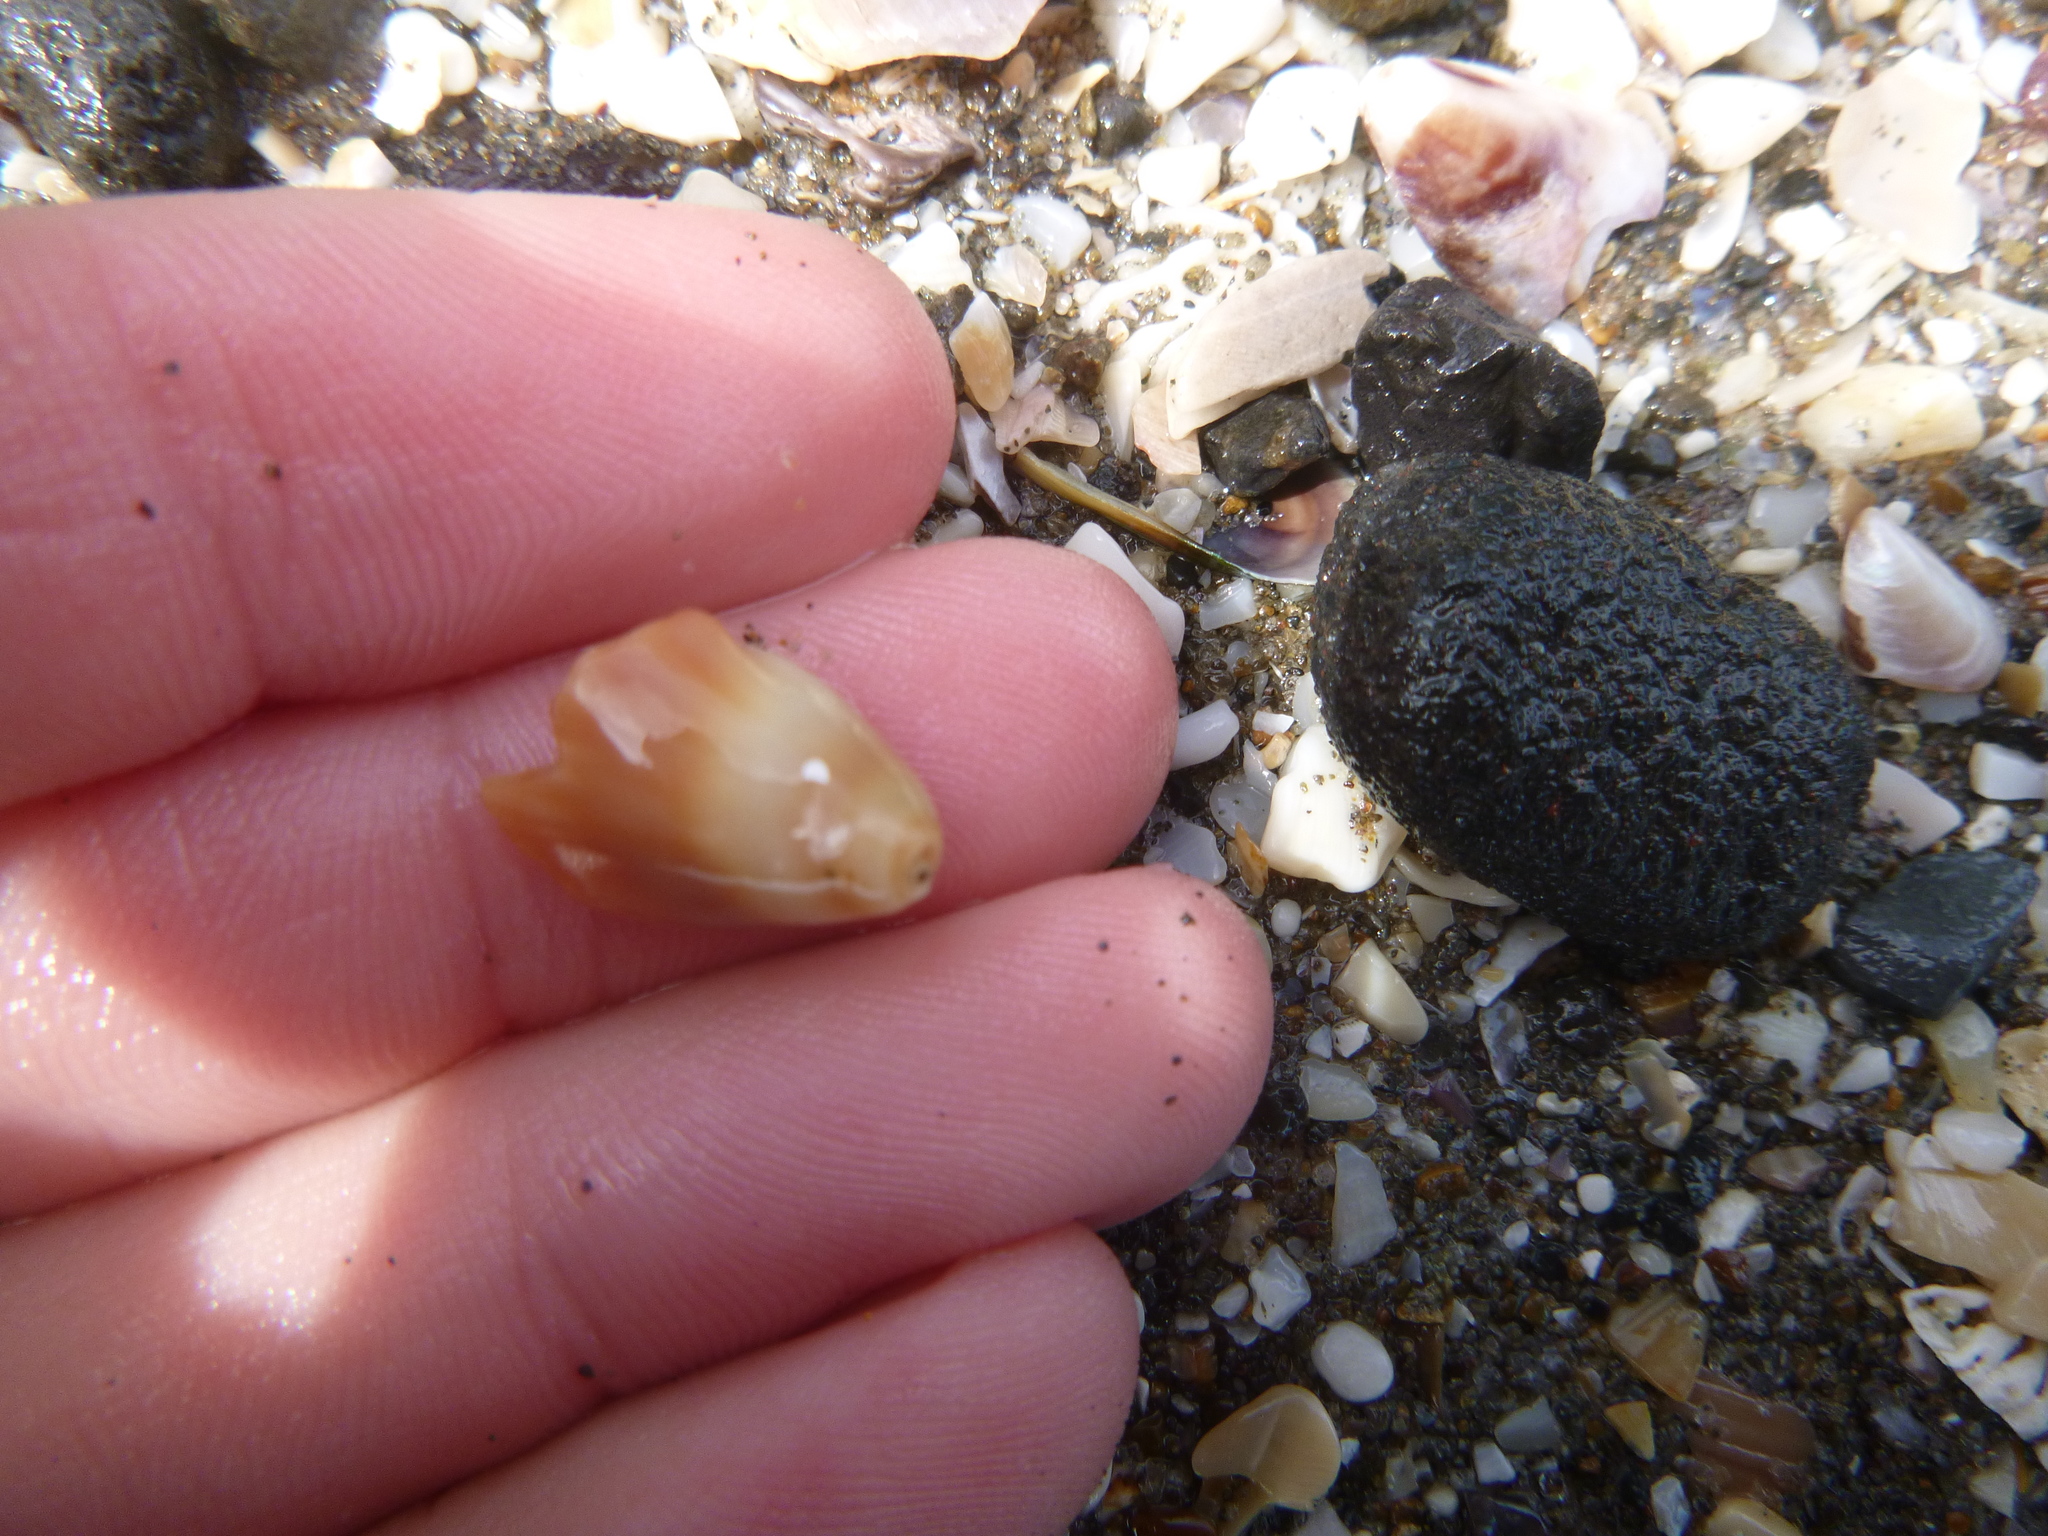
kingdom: Animalia
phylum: Mollusca
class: Gastropoda
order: Neogastropoda
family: Ancillariidae
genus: Amalda
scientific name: Amalda australis
